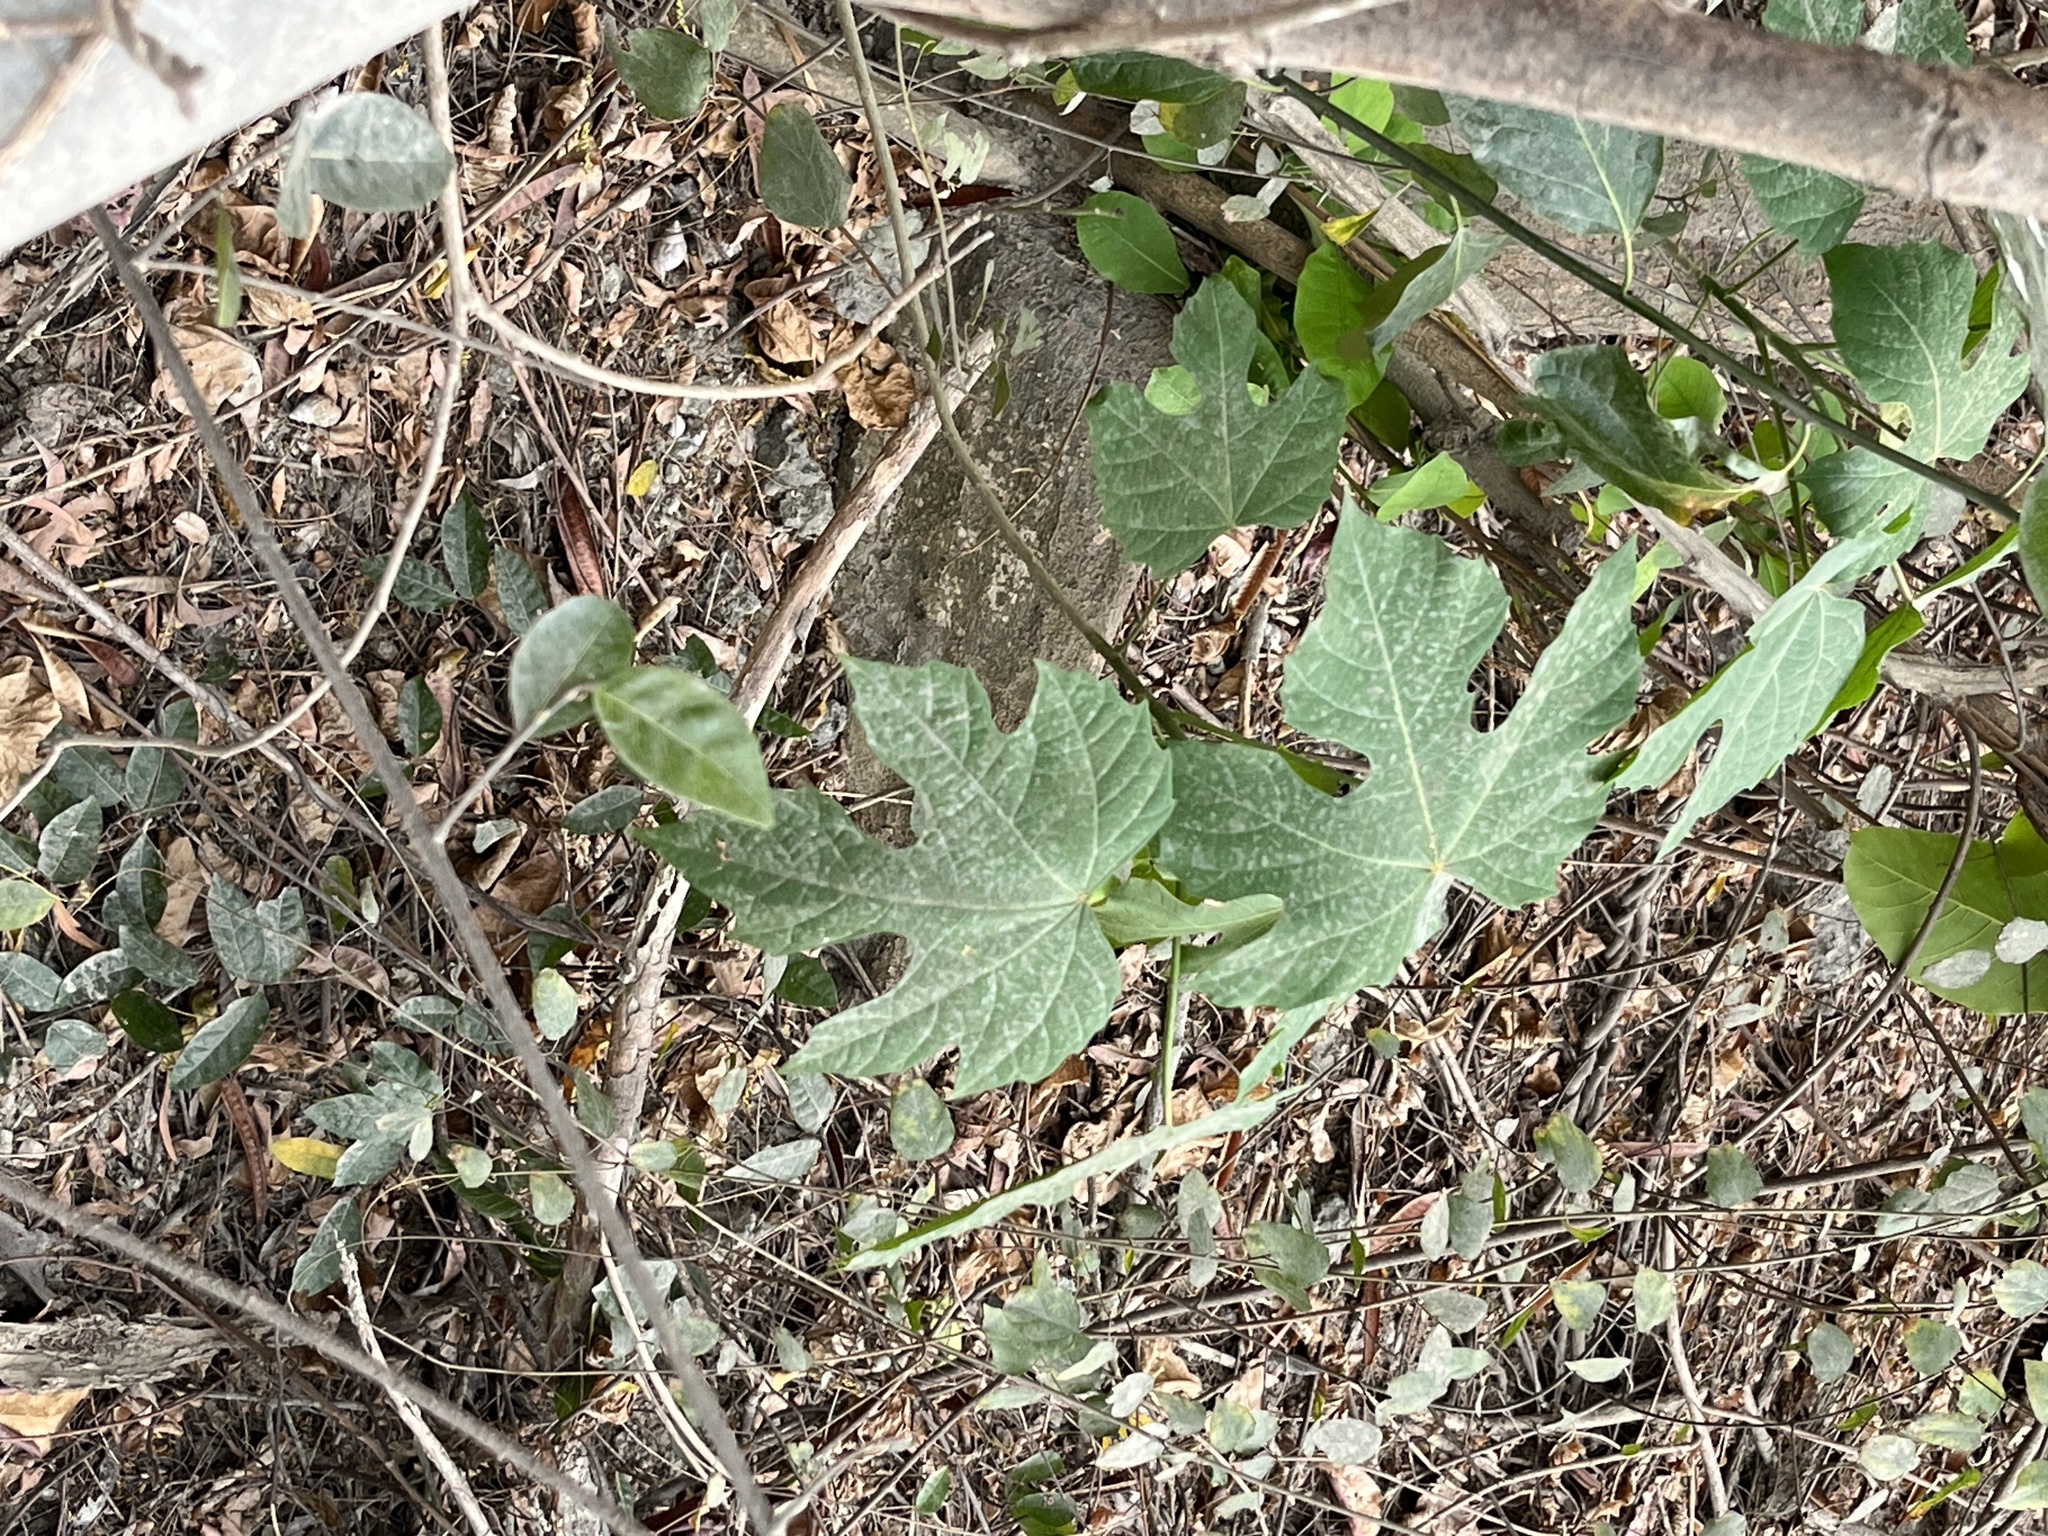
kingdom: Plantae
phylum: Tracheophyta
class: Magnoliopsida
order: Malpighiales
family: Euphorbiaceae
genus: Melanolepis
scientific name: Melanolepis multiglandulosa
